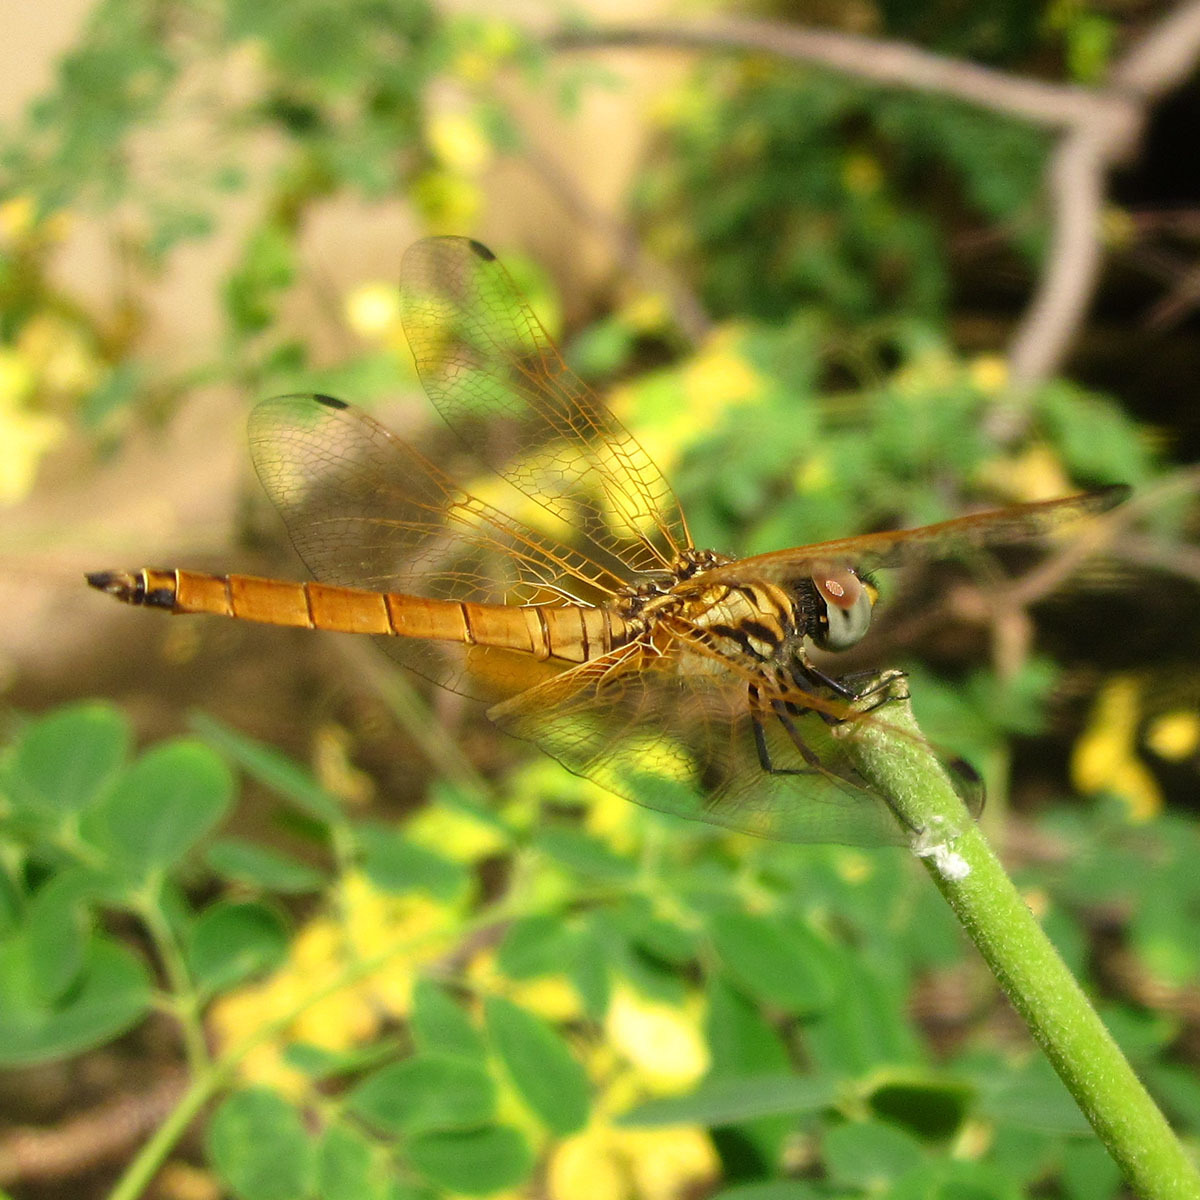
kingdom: Animalia
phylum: Arthropoda
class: Insecta
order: Odonata
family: Libellulidae
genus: Trithemis
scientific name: Trithemis aurora
